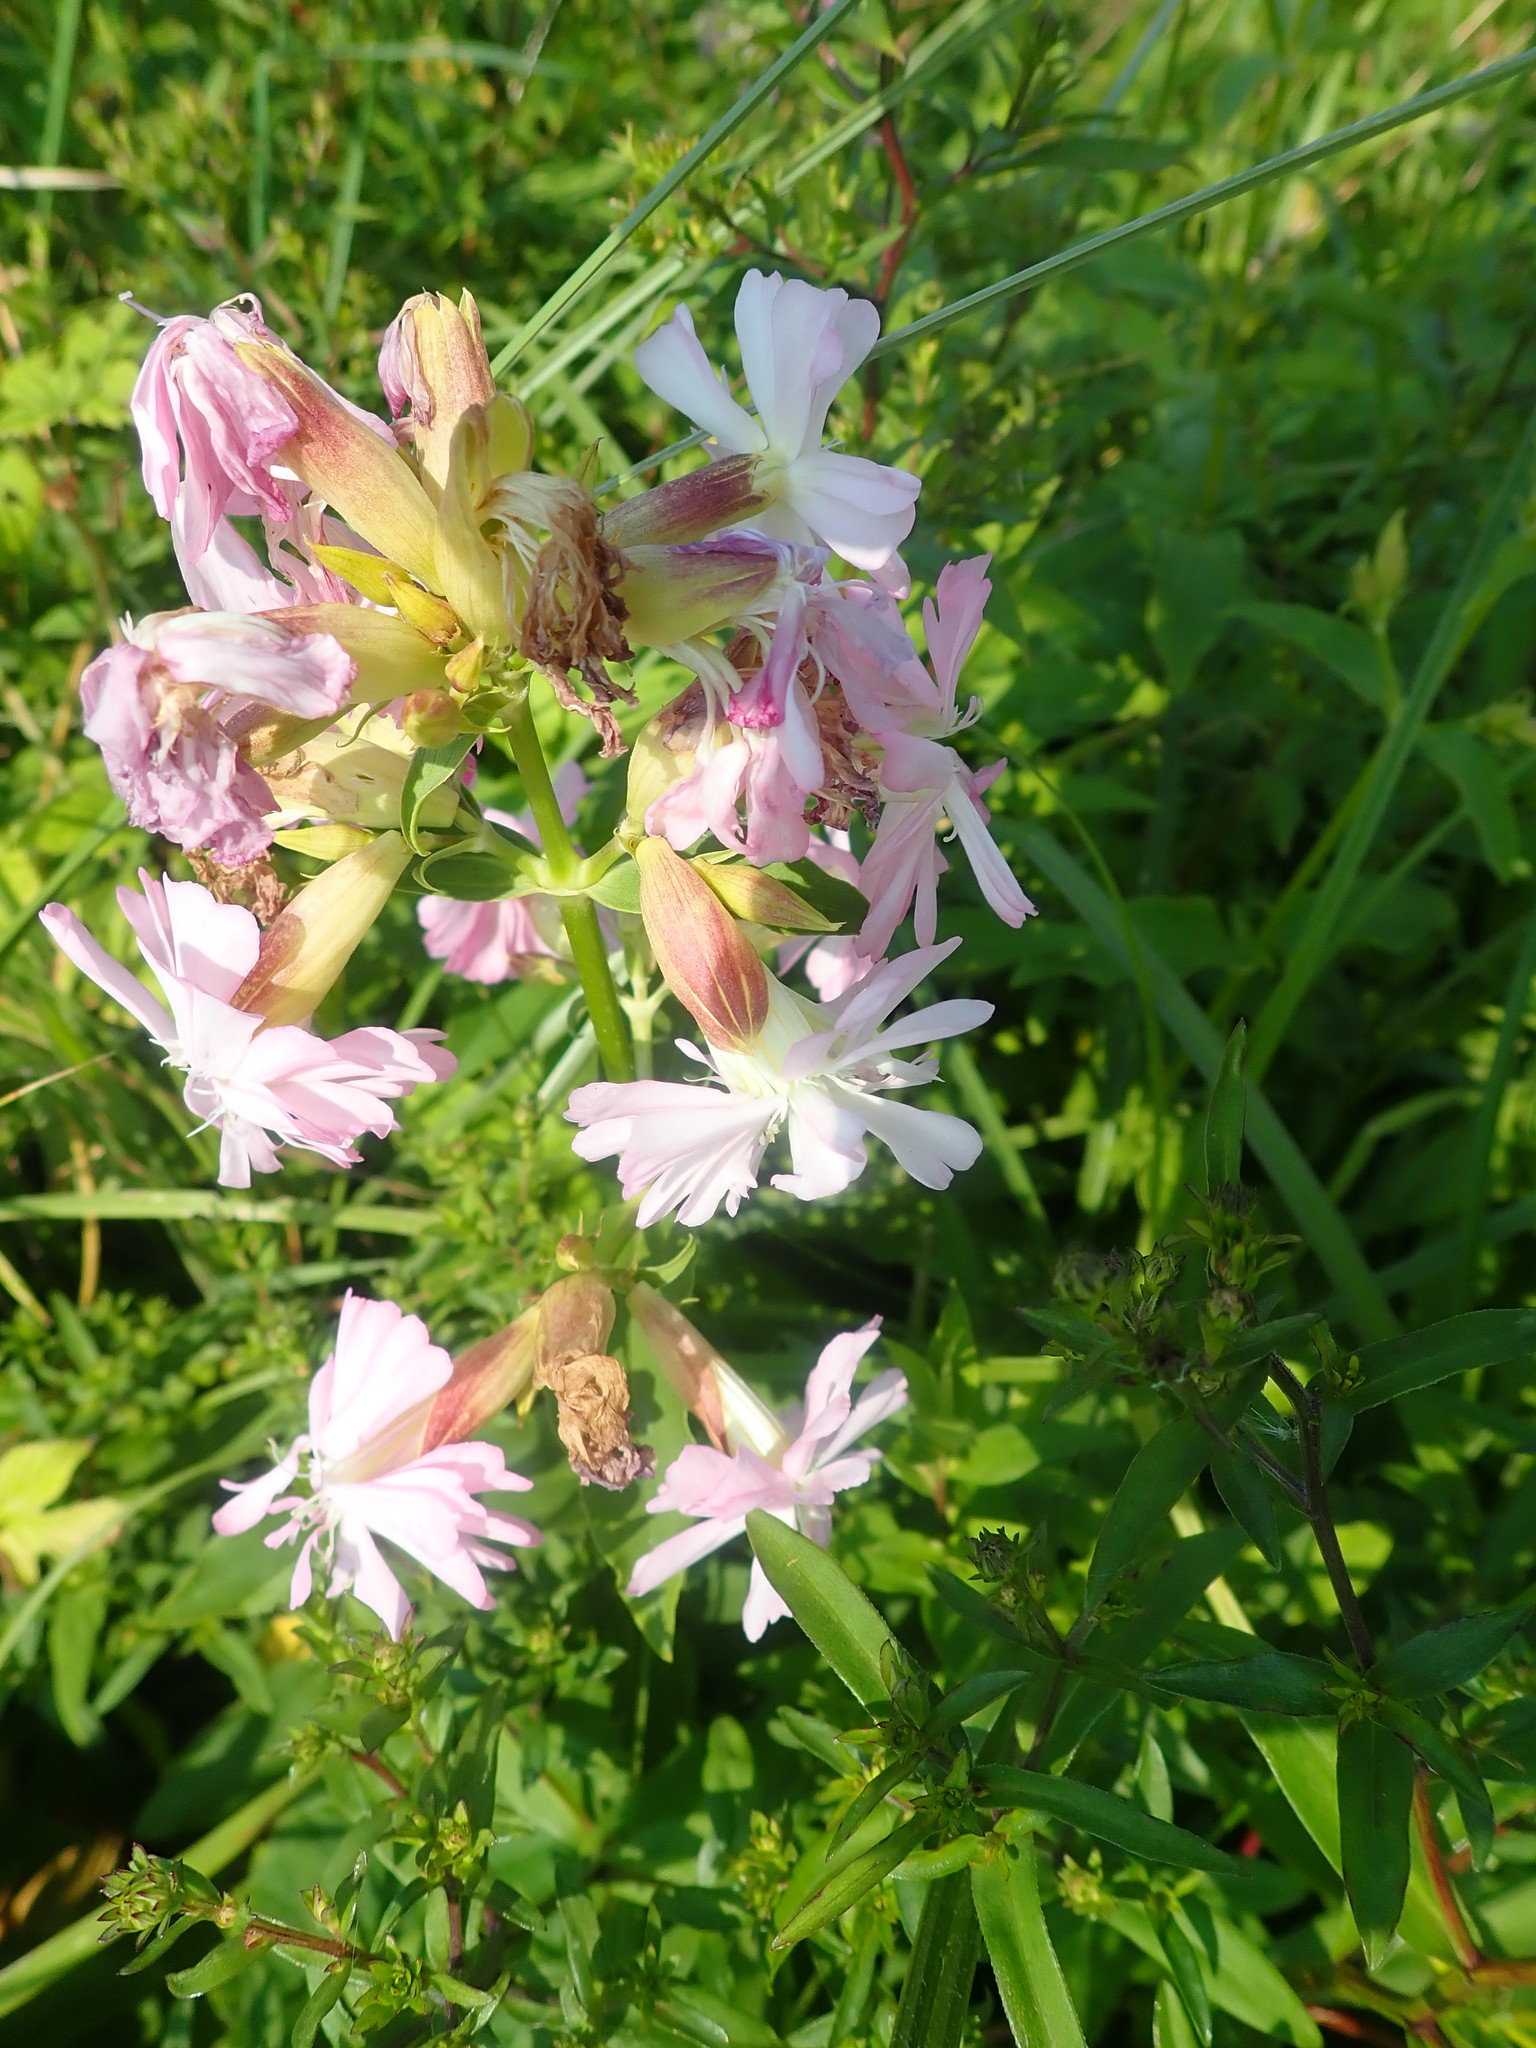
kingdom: Plantae
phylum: Tracheophyta
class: Magnoliopsida
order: Caryophyllales
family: Caryophyllaceae
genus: Saponaria
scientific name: Saponaria officinalis
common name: Soapwort
